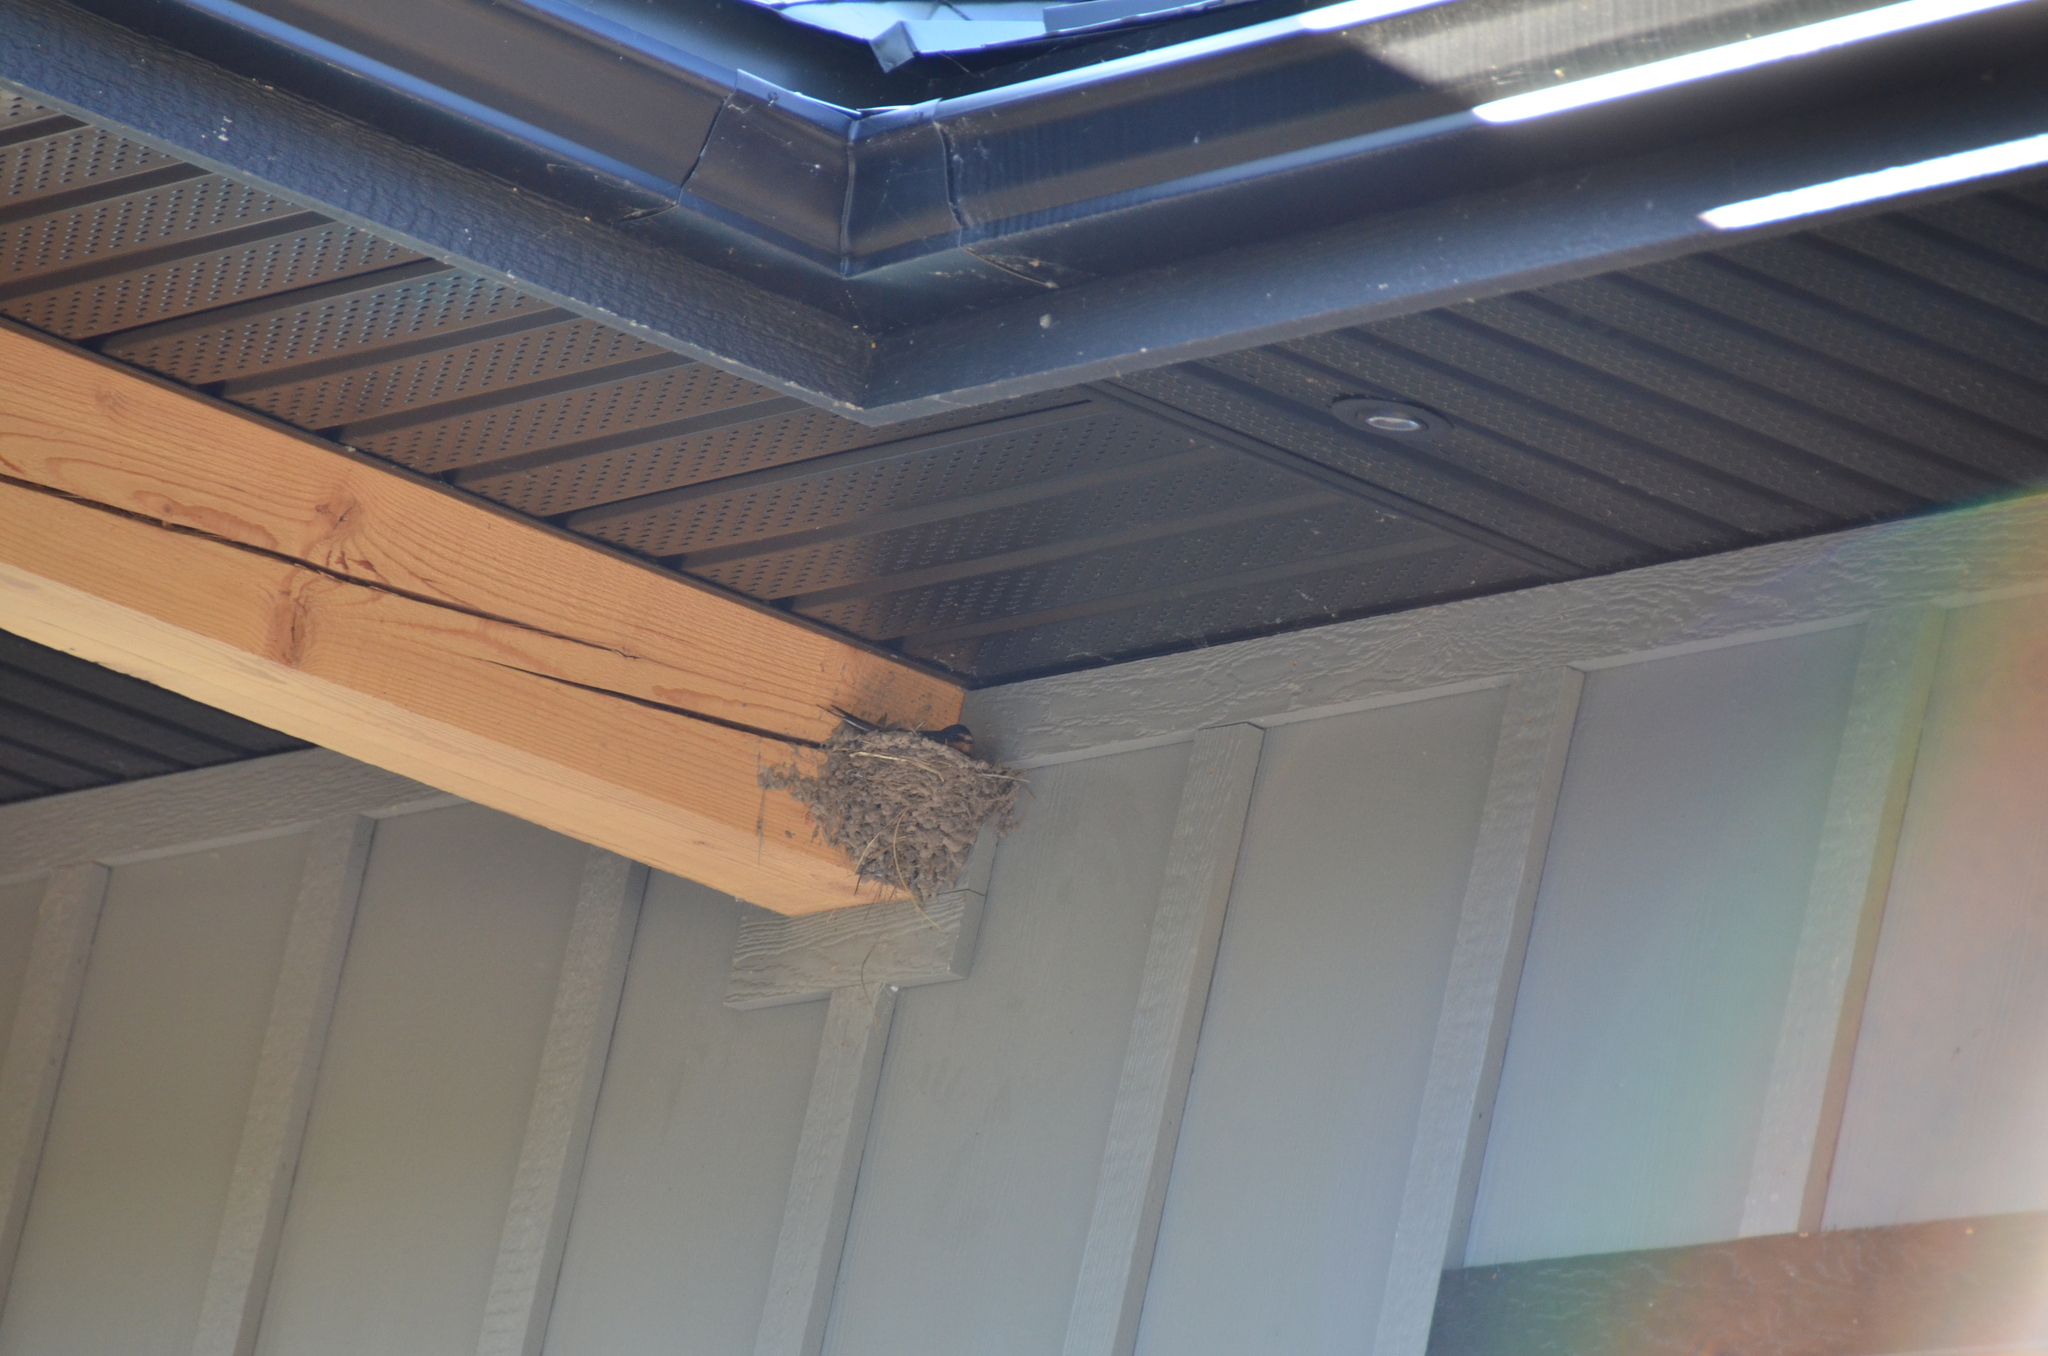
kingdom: Animalia
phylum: Chordata
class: Aves
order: Passeriformes
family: Hirundinidae
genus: Hirundo
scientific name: Hirundo rustica
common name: Barn swallow
